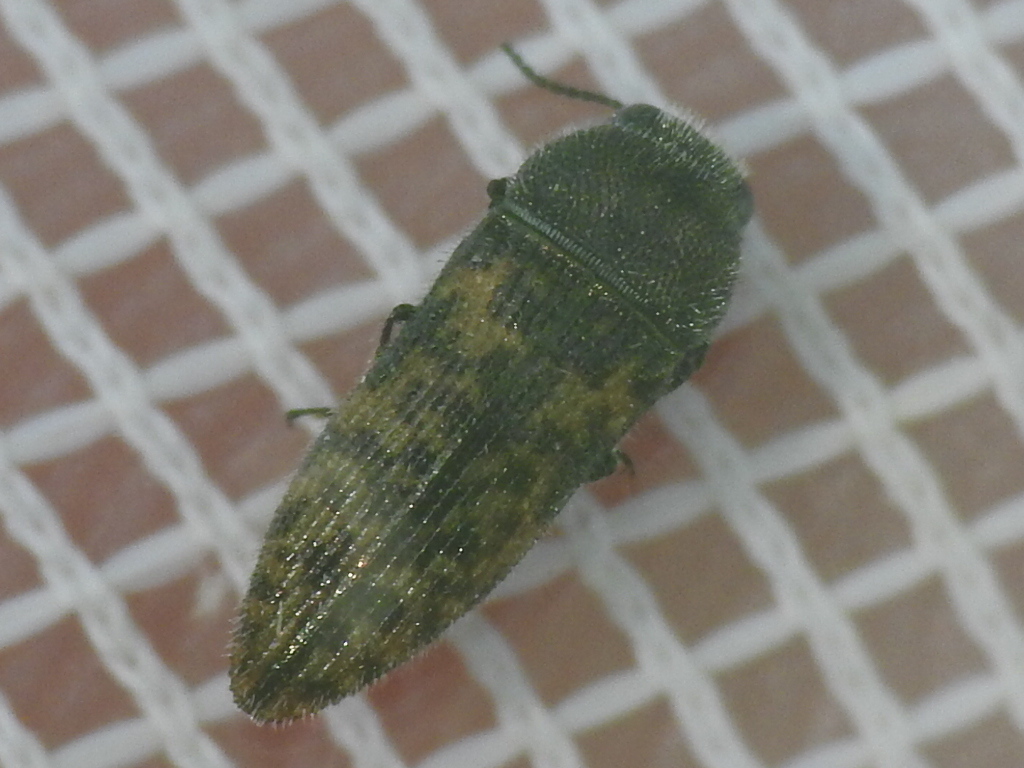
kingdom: Animalia
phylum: Arthropoda
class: Insecta
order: Coleoptera
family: Buprestidae
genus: Acmaeodera
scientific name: Acmaeodera neglecta
